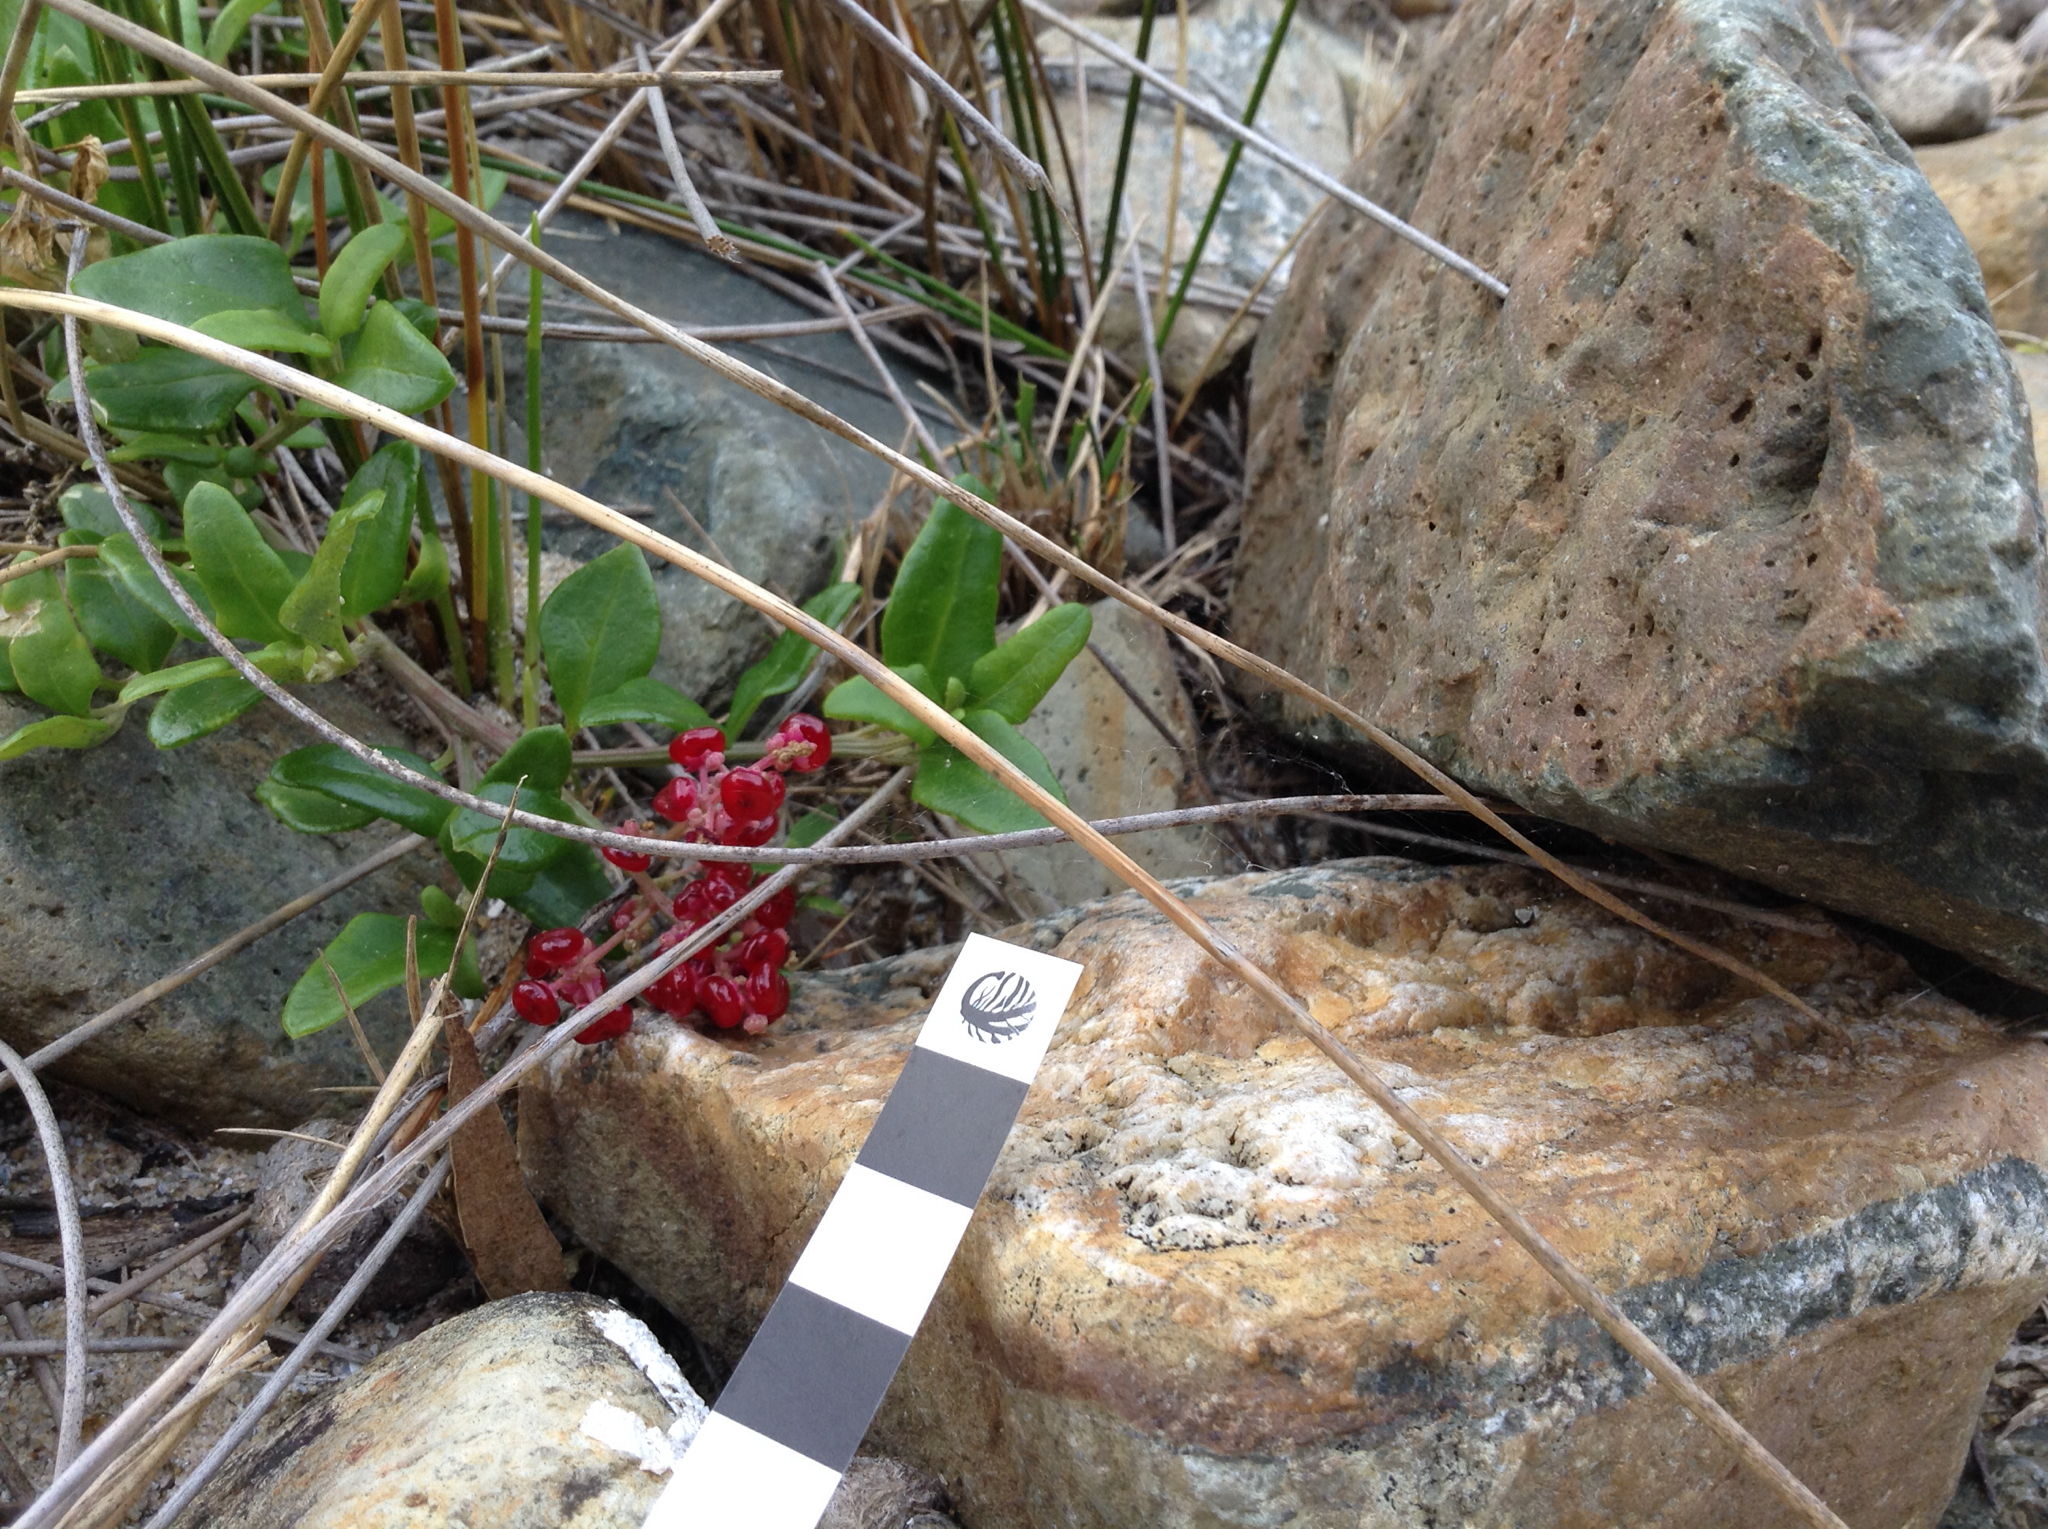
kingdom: Plantae
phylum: Tracheophyta
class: Magnoliopsida
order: Caryophyllales
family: Amaranthaceae
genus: Chenopodium
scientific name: Chenopodium candolleanum
